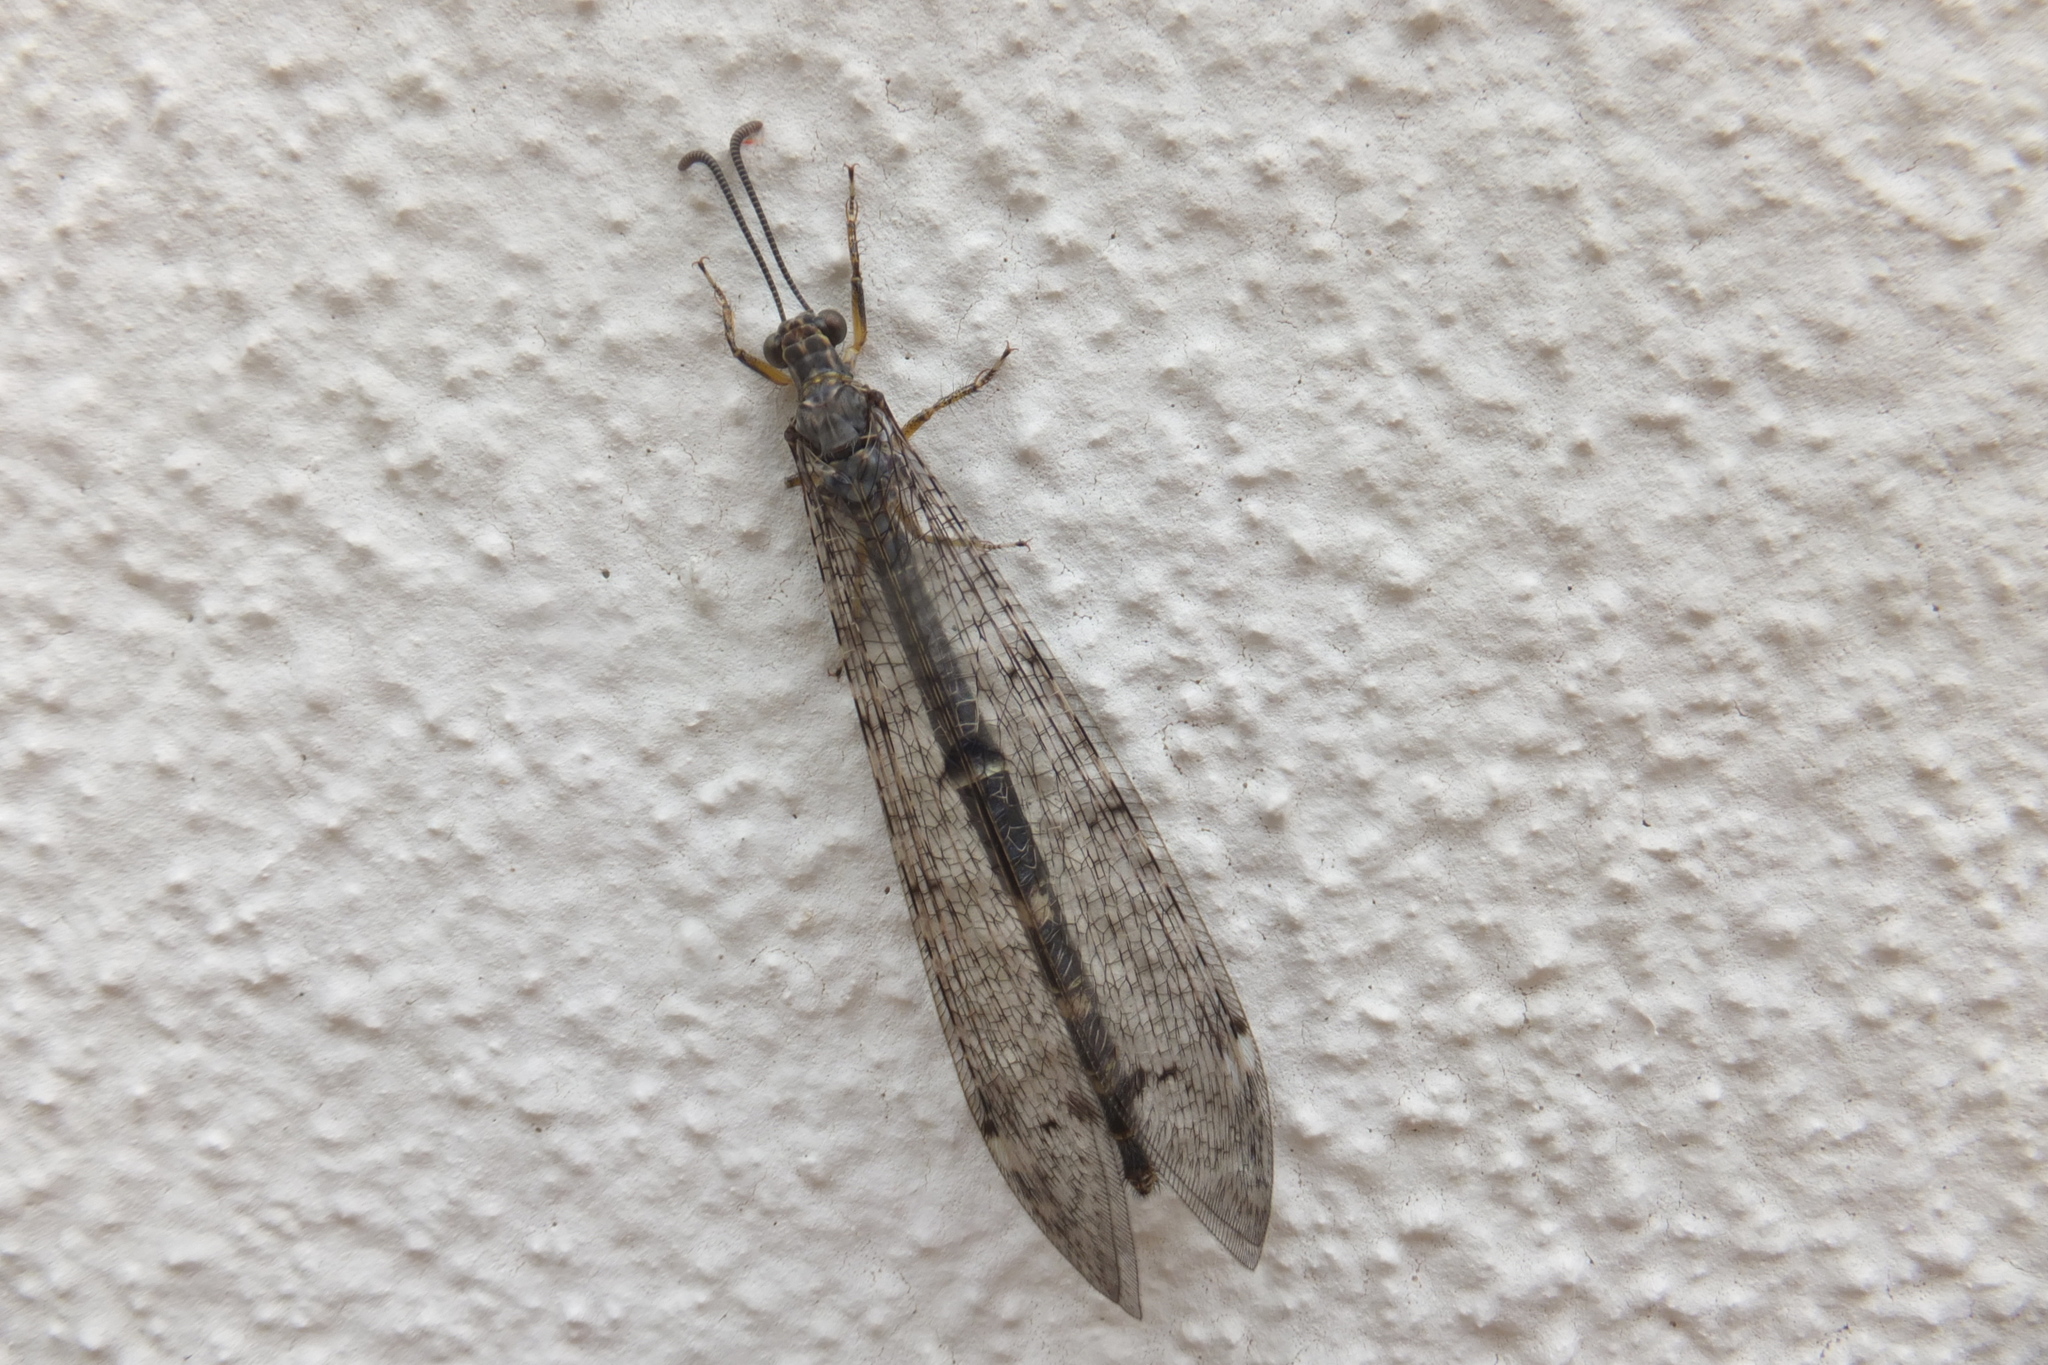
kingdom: Animalia
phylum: Arthropoda
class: Insecta
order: Neuroptera
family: Myrmeleontidae
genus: Distoleon
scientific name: Distoleon tetragrammicus
